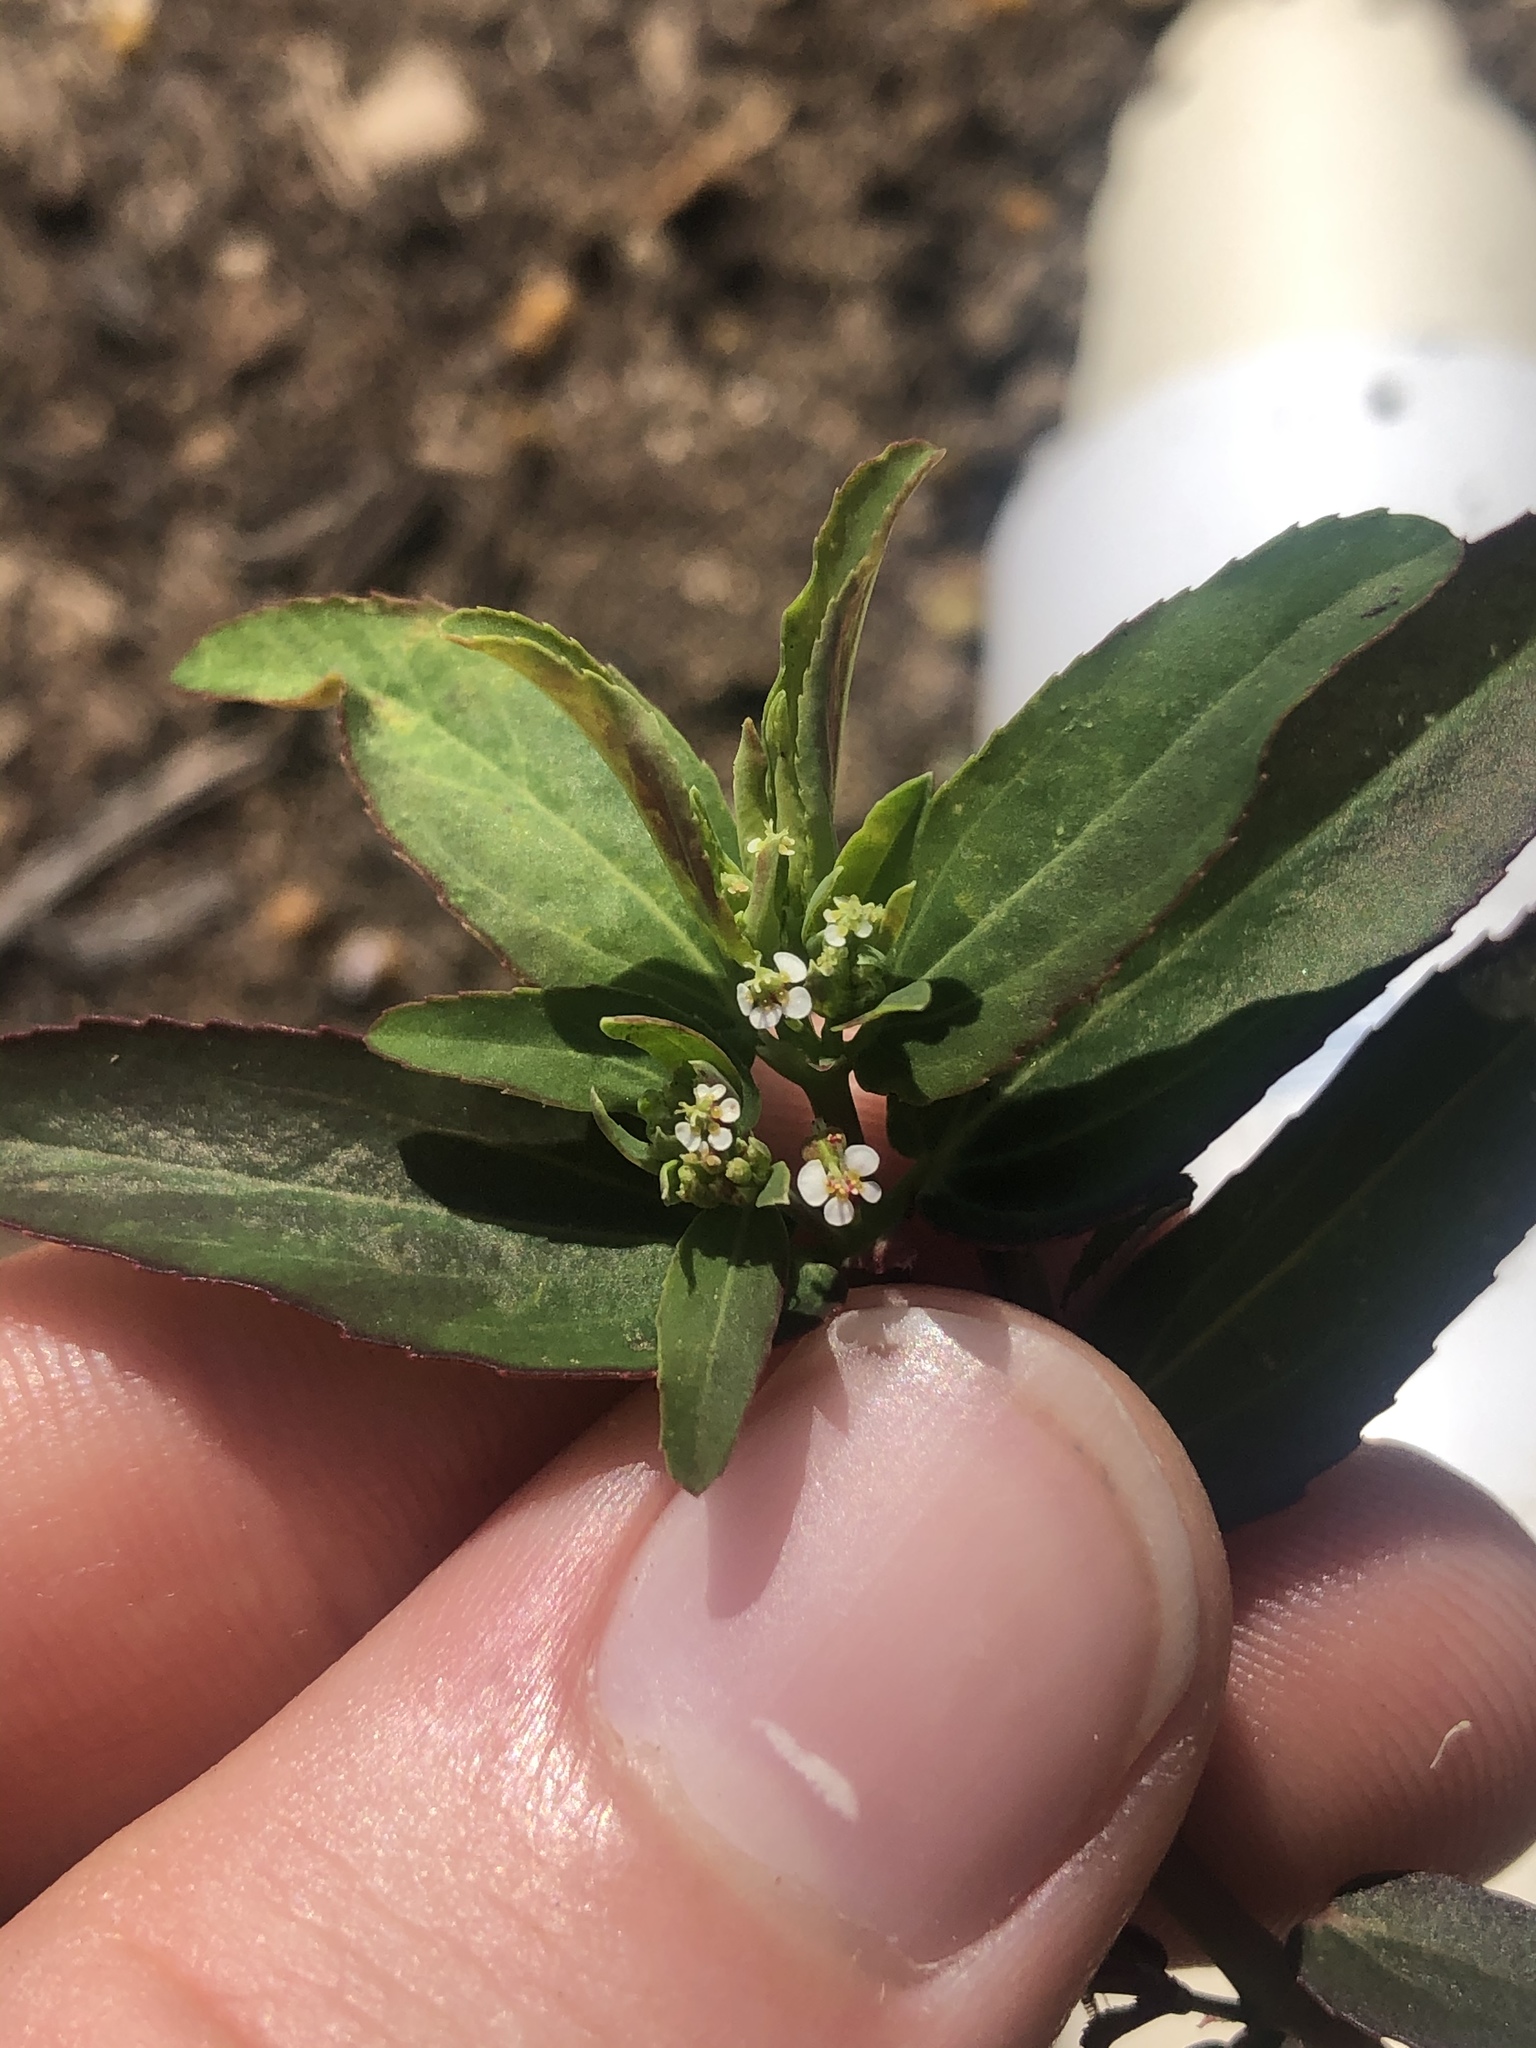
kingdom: Plantae
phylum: Tracheophyta
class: Magnoliopsida
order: Malpighiales
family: Euphorbiaceae
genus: Euphorbia
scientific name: Euphorbia hypericifolia
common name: Graceful sandmat
